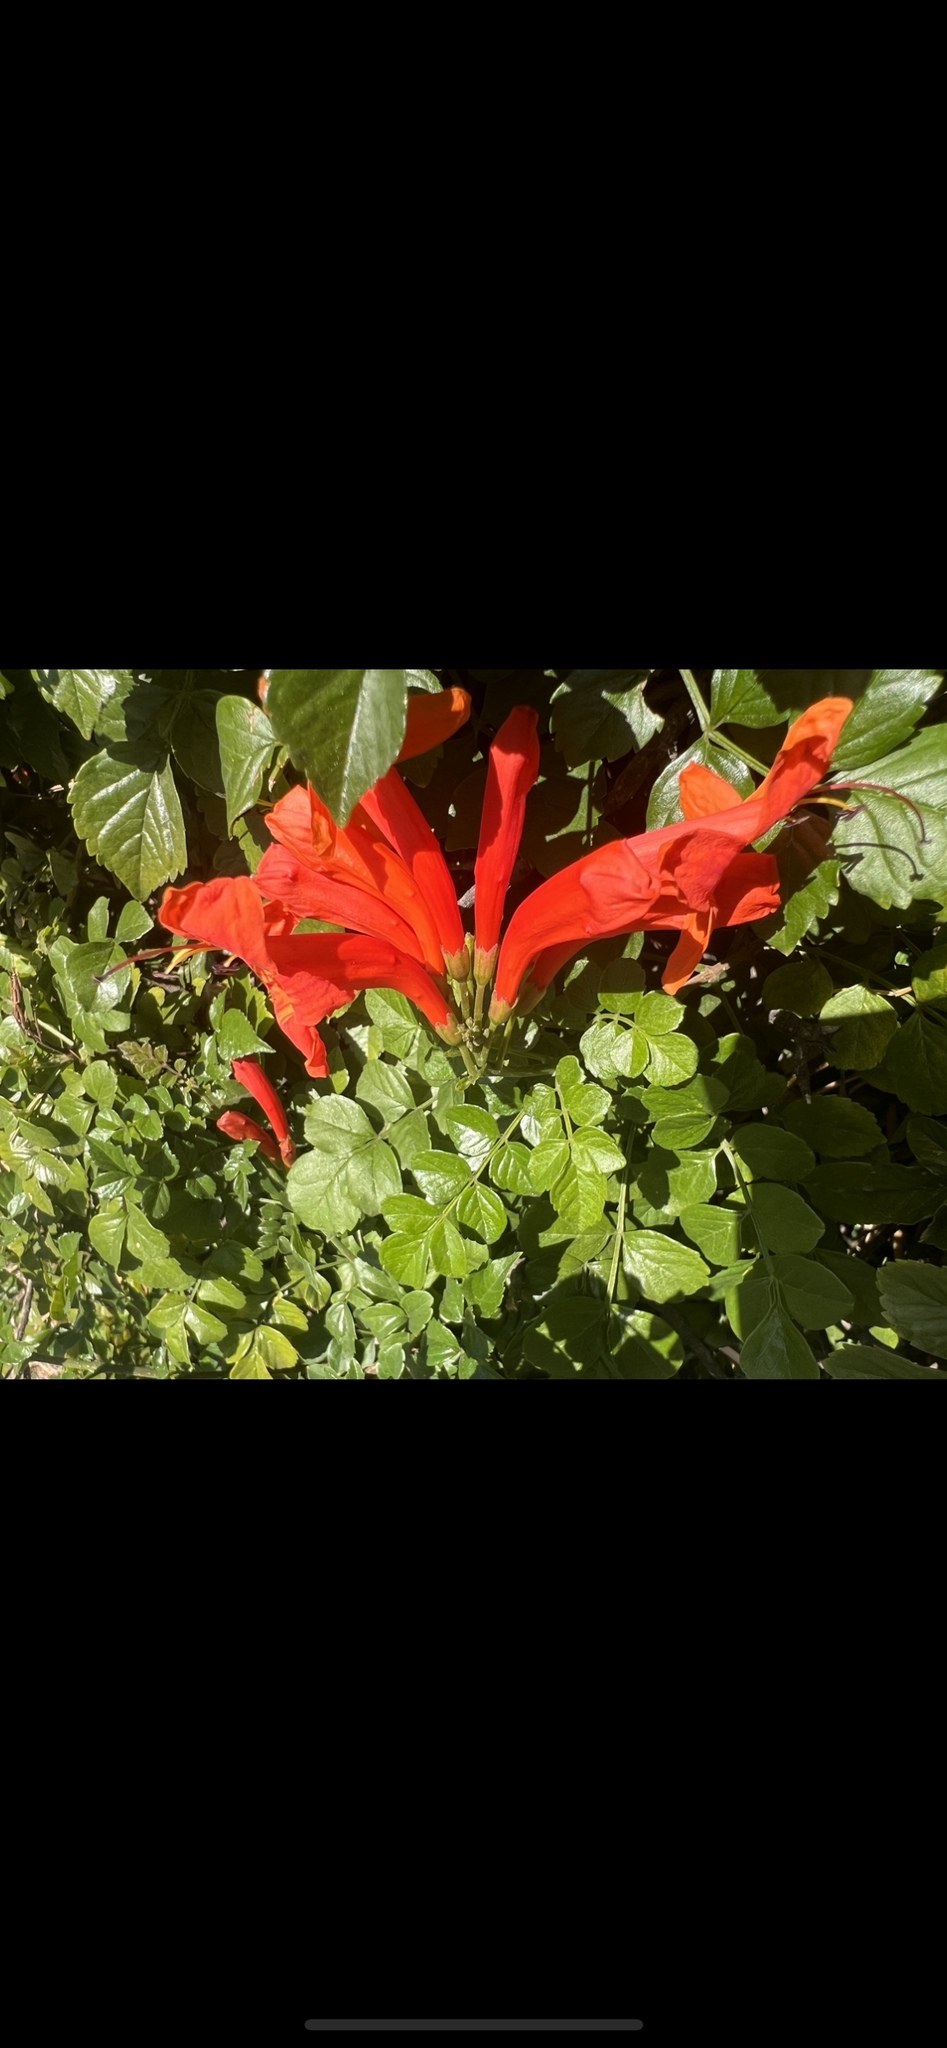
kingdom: Plantae
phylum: Tracheophyta
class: Magnoliopsida
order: Lamiales
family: Bignoniaceae
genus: Tecomaria
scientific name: Tecomaria capensis
